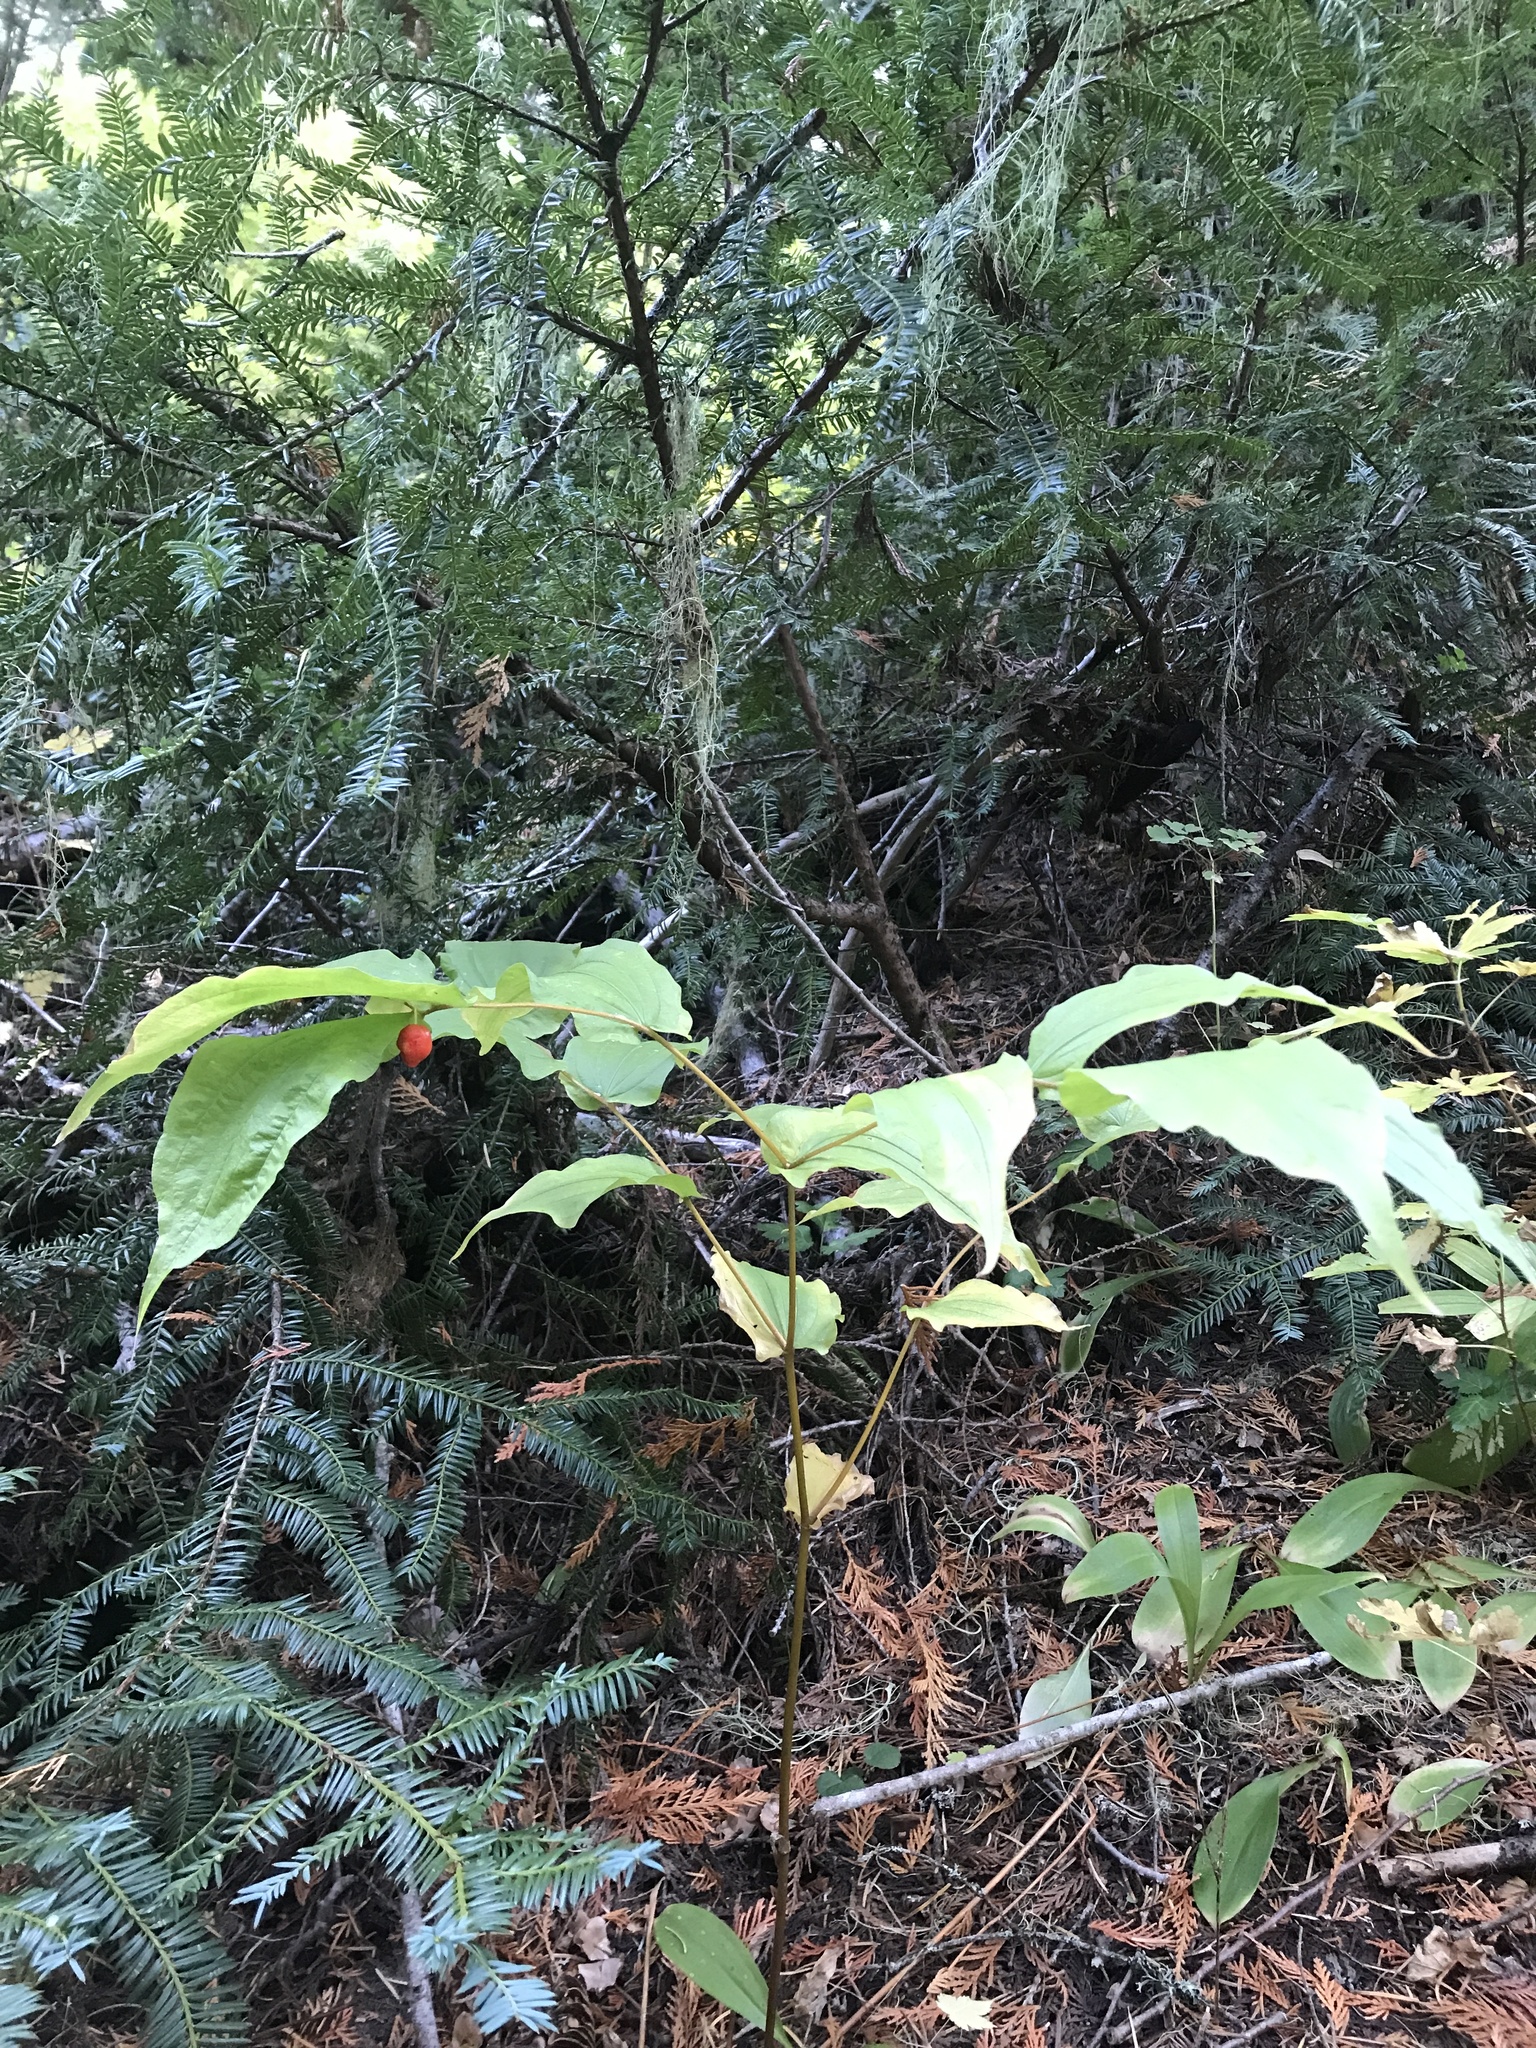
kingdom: Plantae
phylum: Tracheophyta
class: Liliopsida
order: Liliales
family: Liliaceae
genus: Prosartes
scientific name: Prosartes hookeri
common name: Fairy-bells
